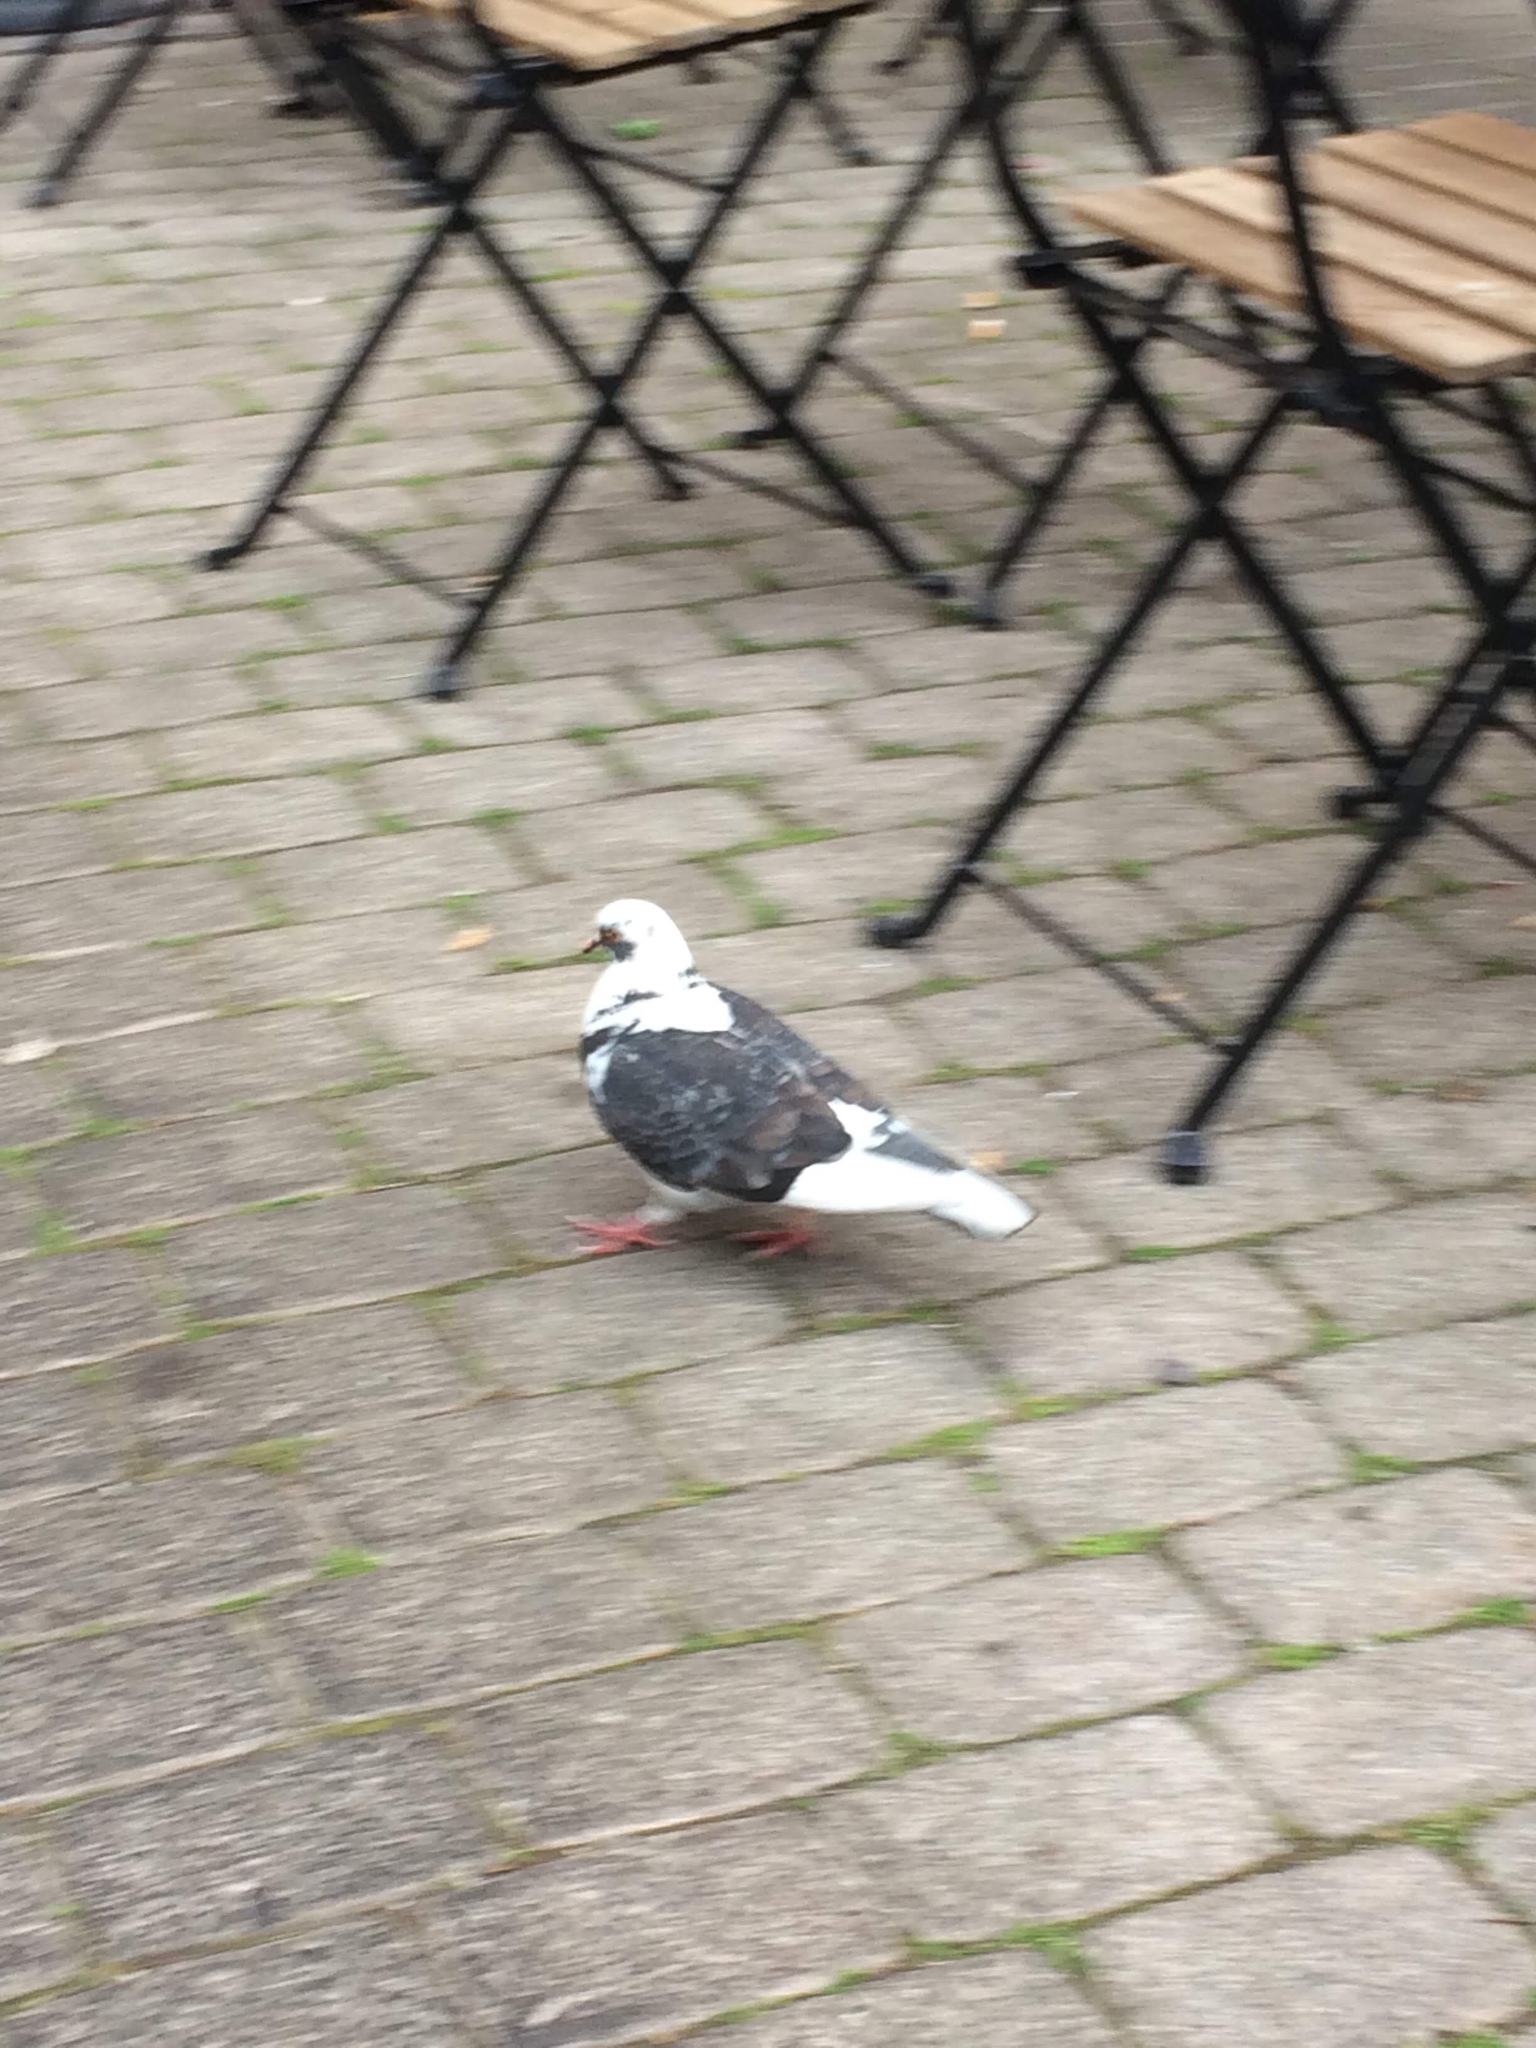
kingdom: Animalia
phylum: Chordata
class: Aves
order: Columbiformes
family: Columbidae
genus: Columba
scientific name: Columba livia
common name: Rock pigeon
